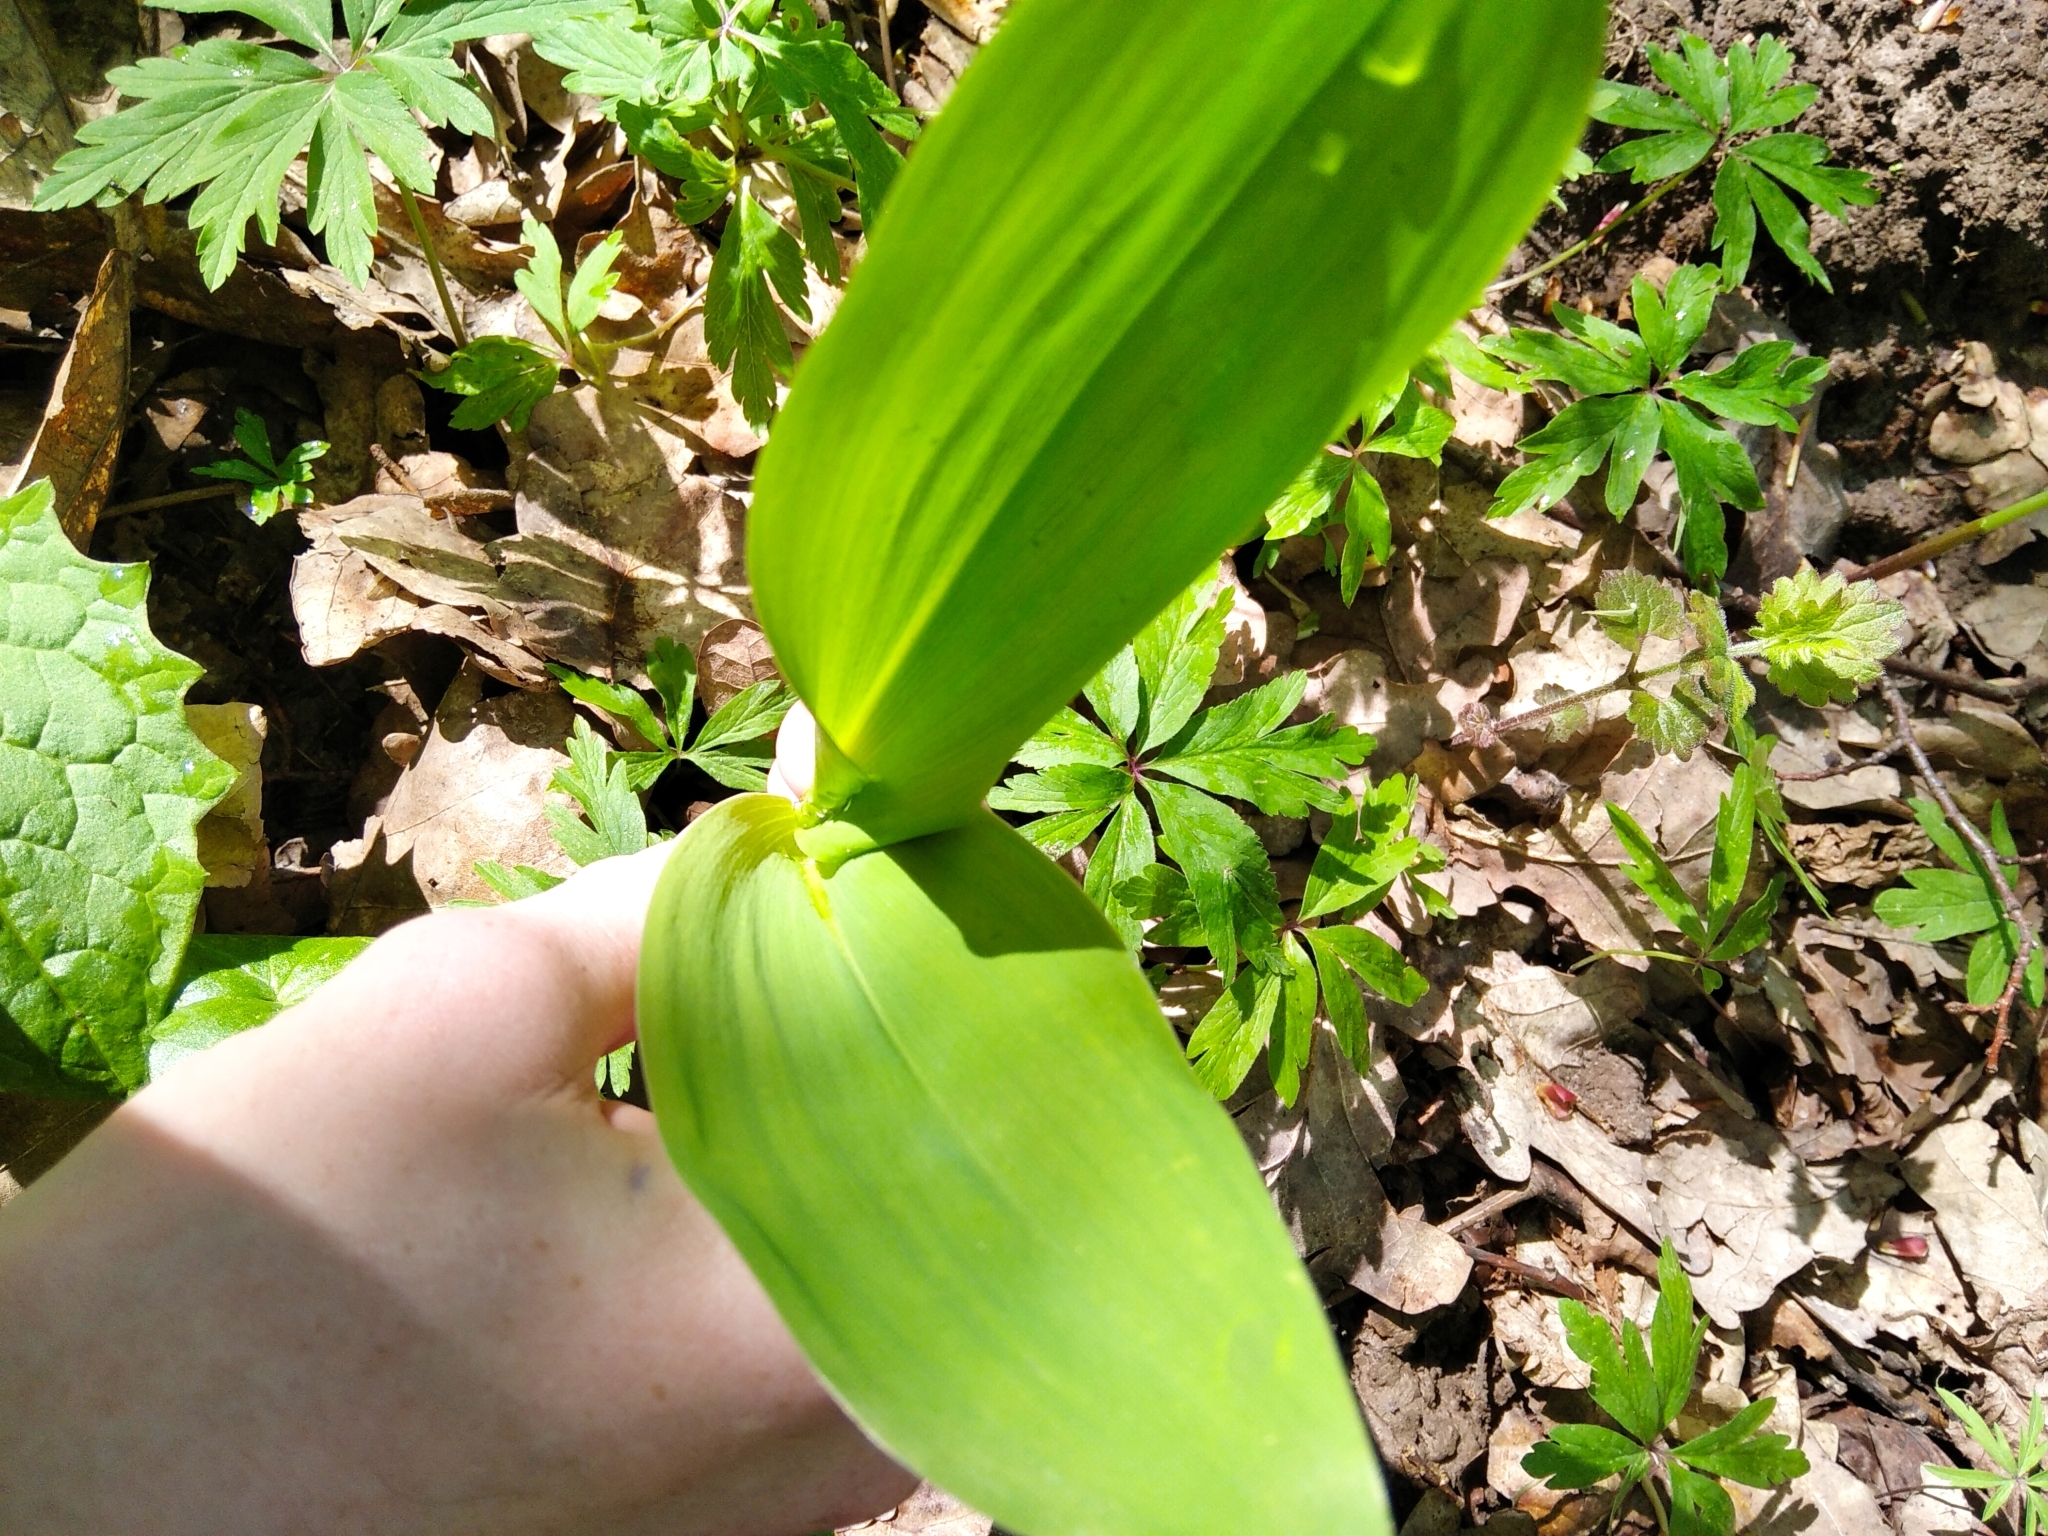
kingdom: Plantae
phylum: Tracheophyta
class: Liliopsida
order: Asparagales
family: Asparagaceae
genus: Convallaria
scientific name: Convallaria majalis
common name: Lily-of-the-valley
